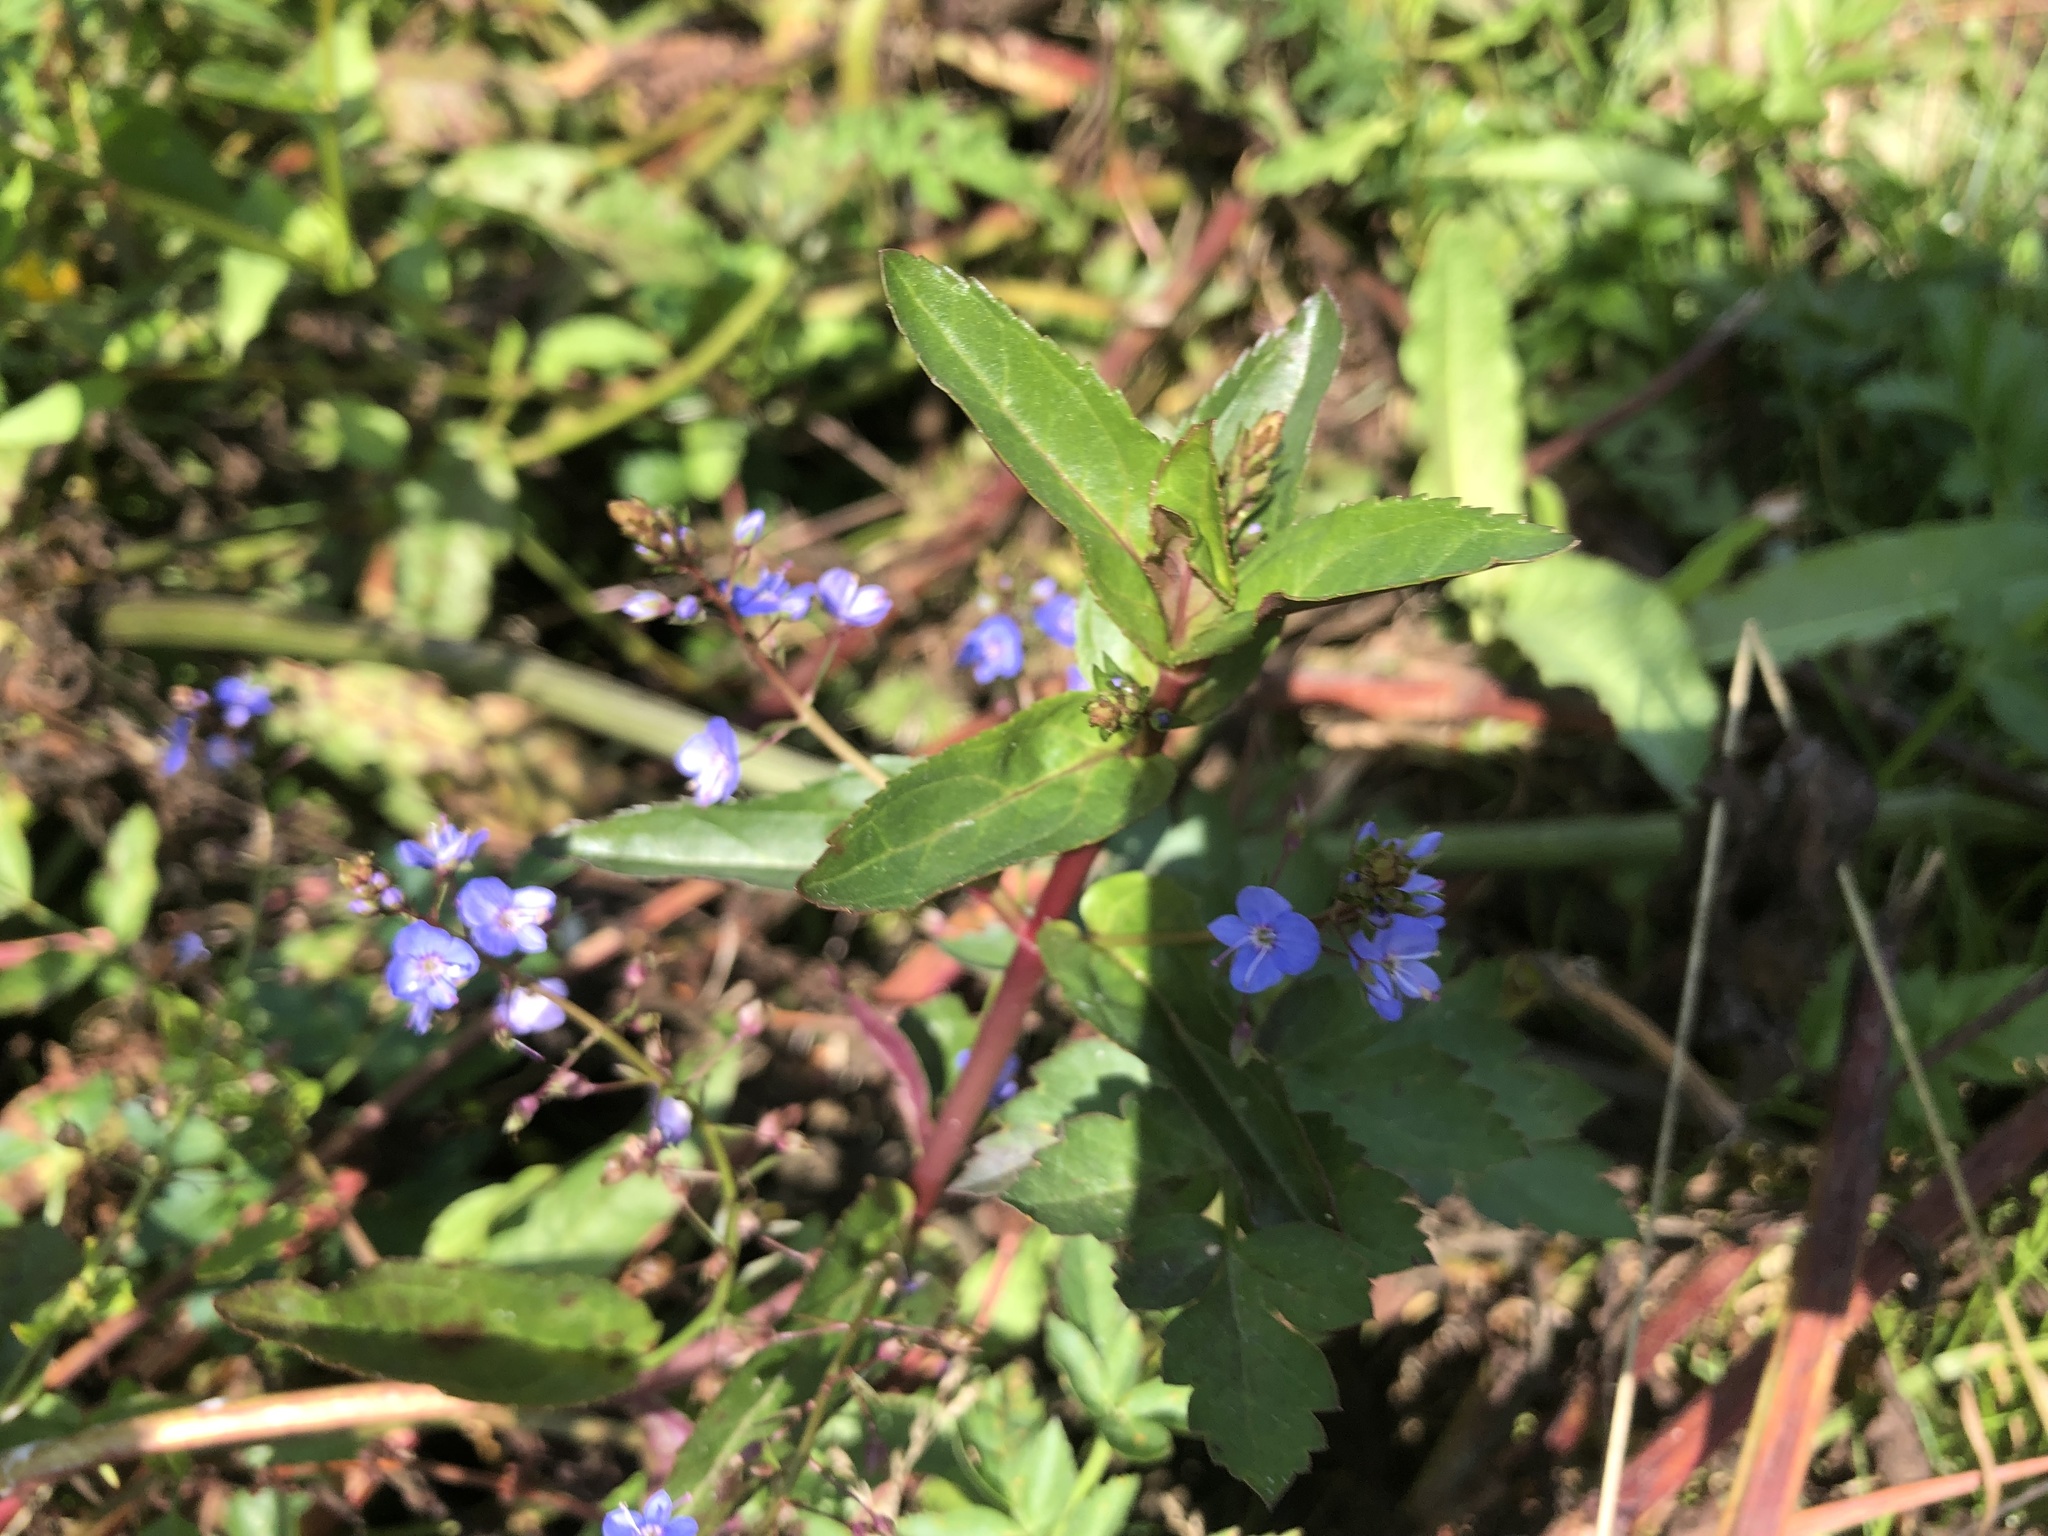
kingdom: Plantae
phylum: Tracheophyta
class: Magnoliopsida
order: Lamiales
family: Plantaginaceae
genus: Veronica
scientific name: Veronica americana
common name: American brooklime
